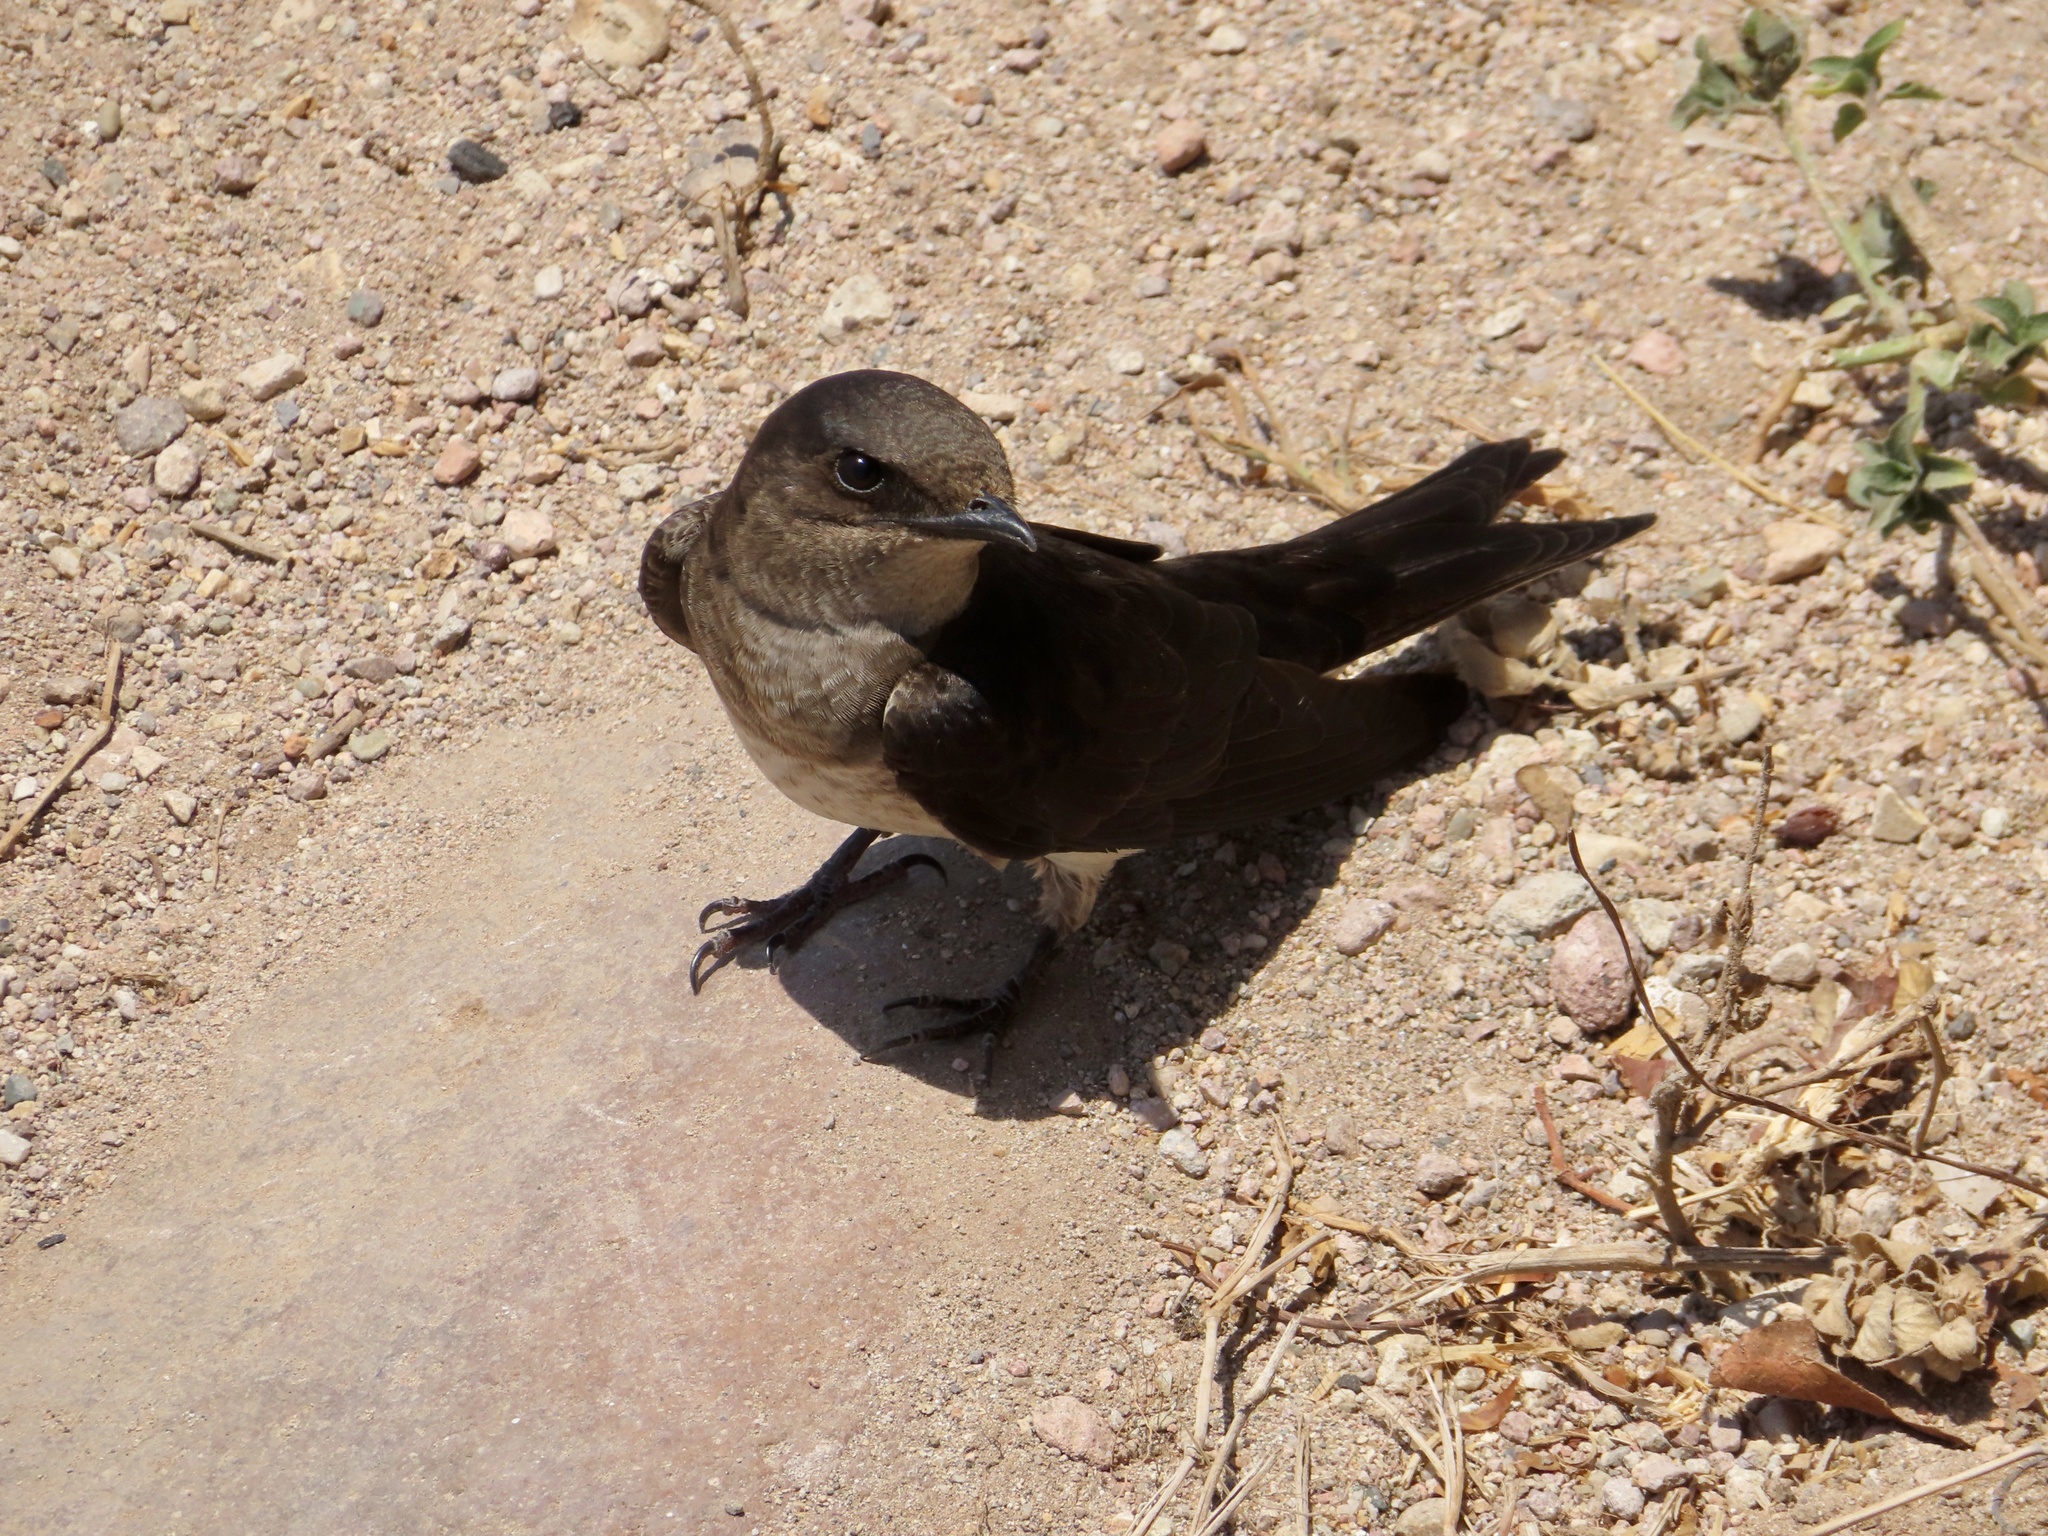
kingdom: Animalia
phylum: Chordata
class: Aves
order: Passeriformes
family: Hirundinidae
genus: Progne
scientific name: Progne chalybea
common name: Grey-breasted martin
